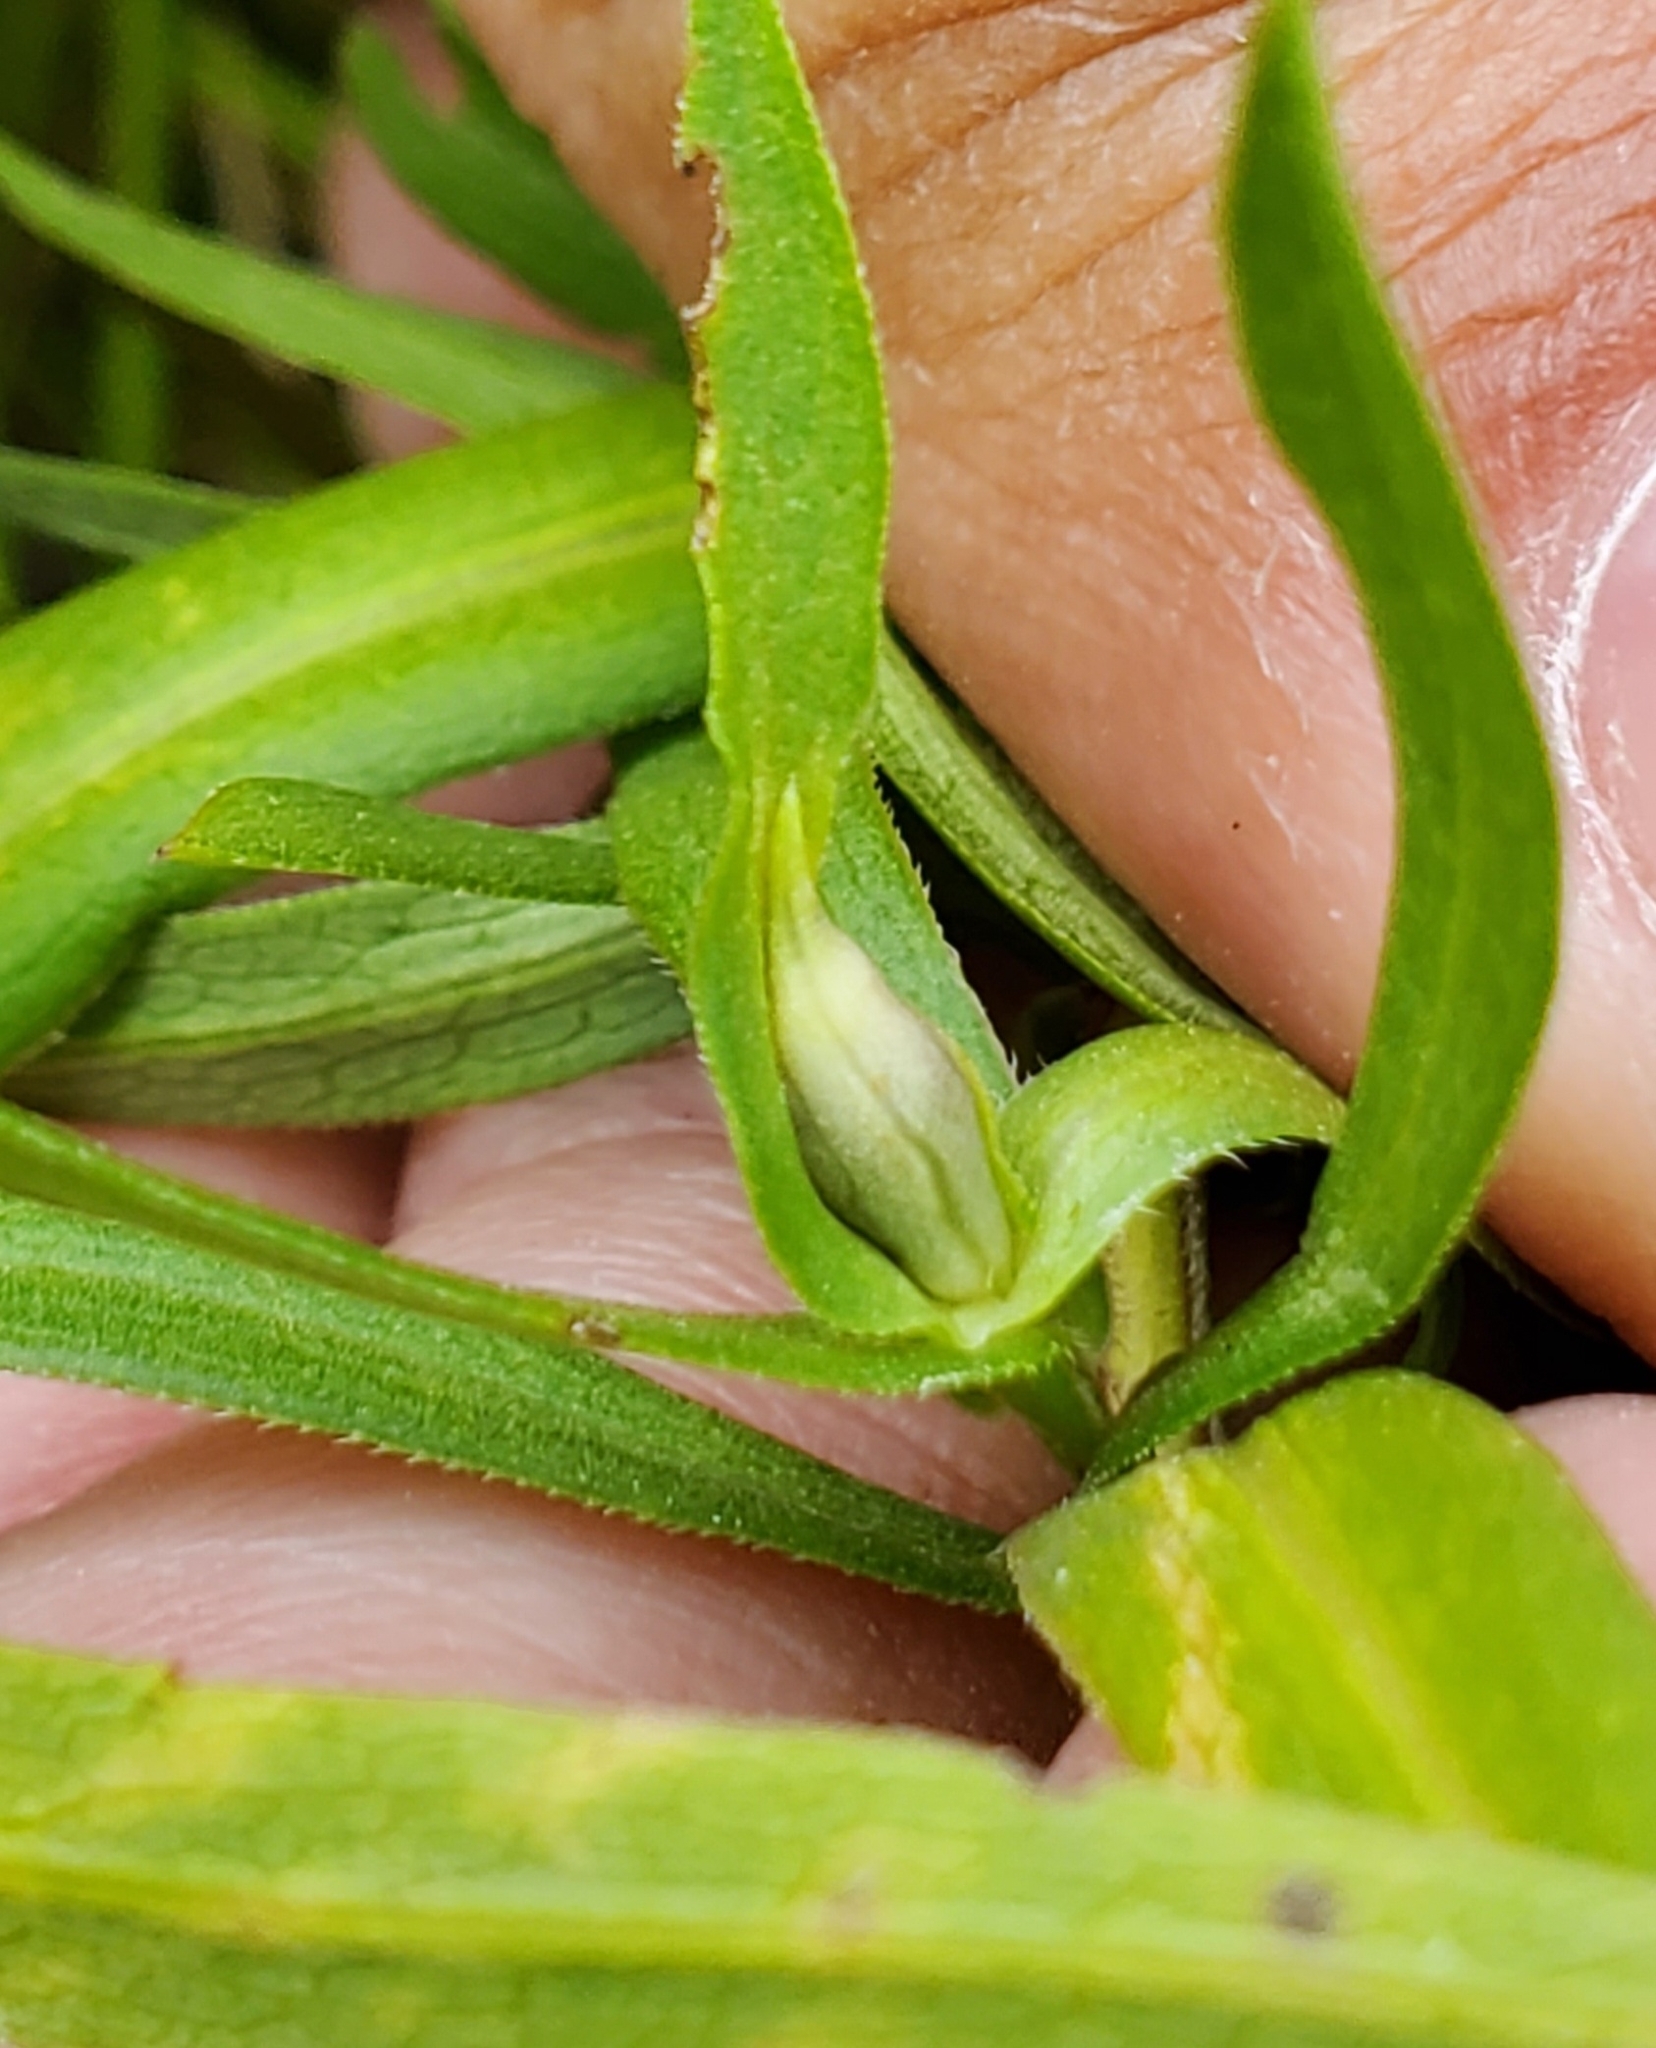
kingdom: Animalia
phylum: Arthropoda
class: Insecta
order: Diptera
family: Cecidomyiidae
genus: Asphondylia
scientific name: Asphondylia imbricata
